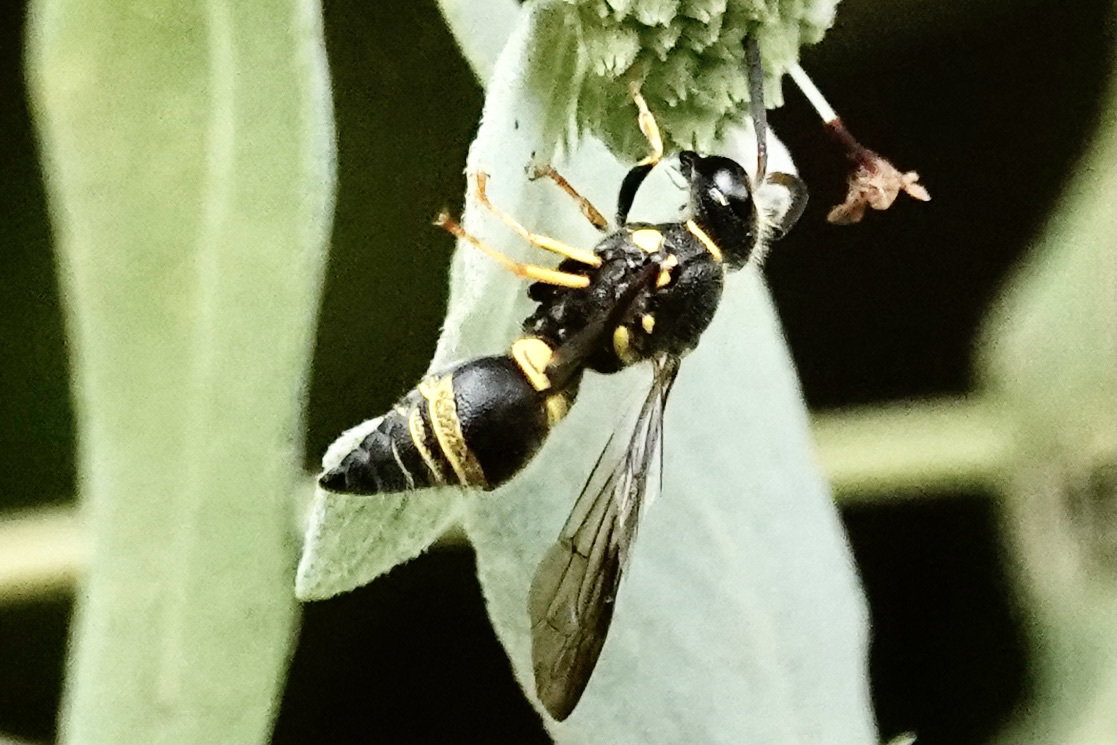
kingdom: Animalia
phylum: Arthropoda
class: Insecta
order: Hymenoptera
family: Vespidae
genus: Ancistrocerus
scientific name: Ancistrocerus campestris
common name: Smiling mason wasp
